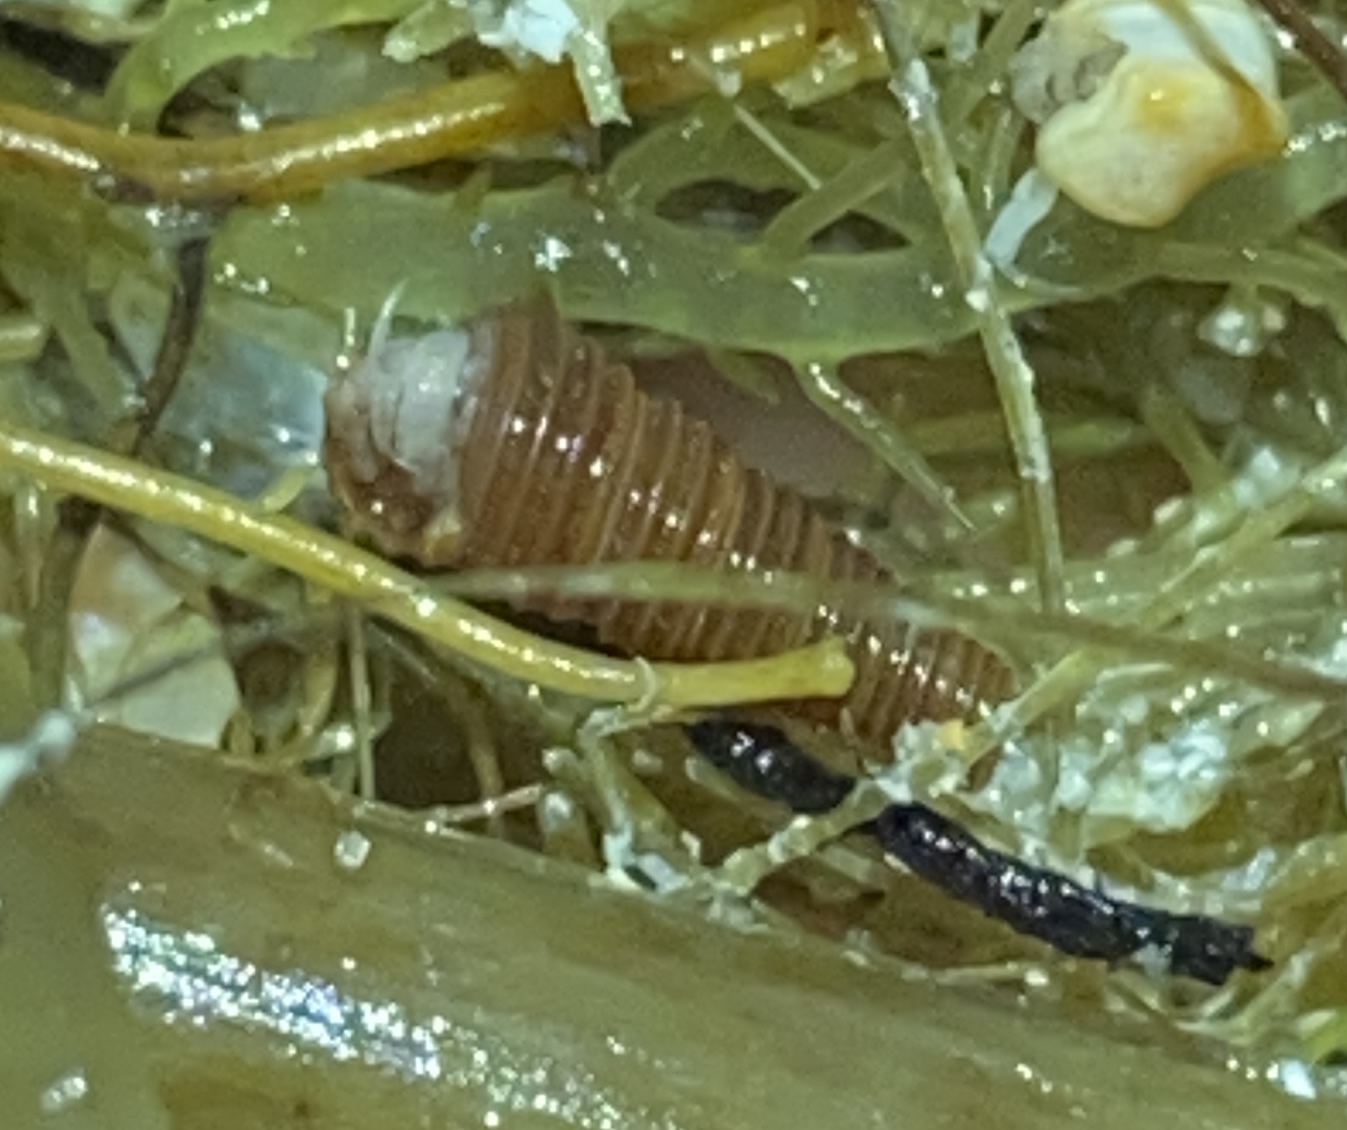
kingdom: Animalia
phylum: Mollusca
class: Gastropoda
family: Cerithiopsidae
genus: Seila
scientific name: Seila adamsii
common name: Adam's miniature cerith
